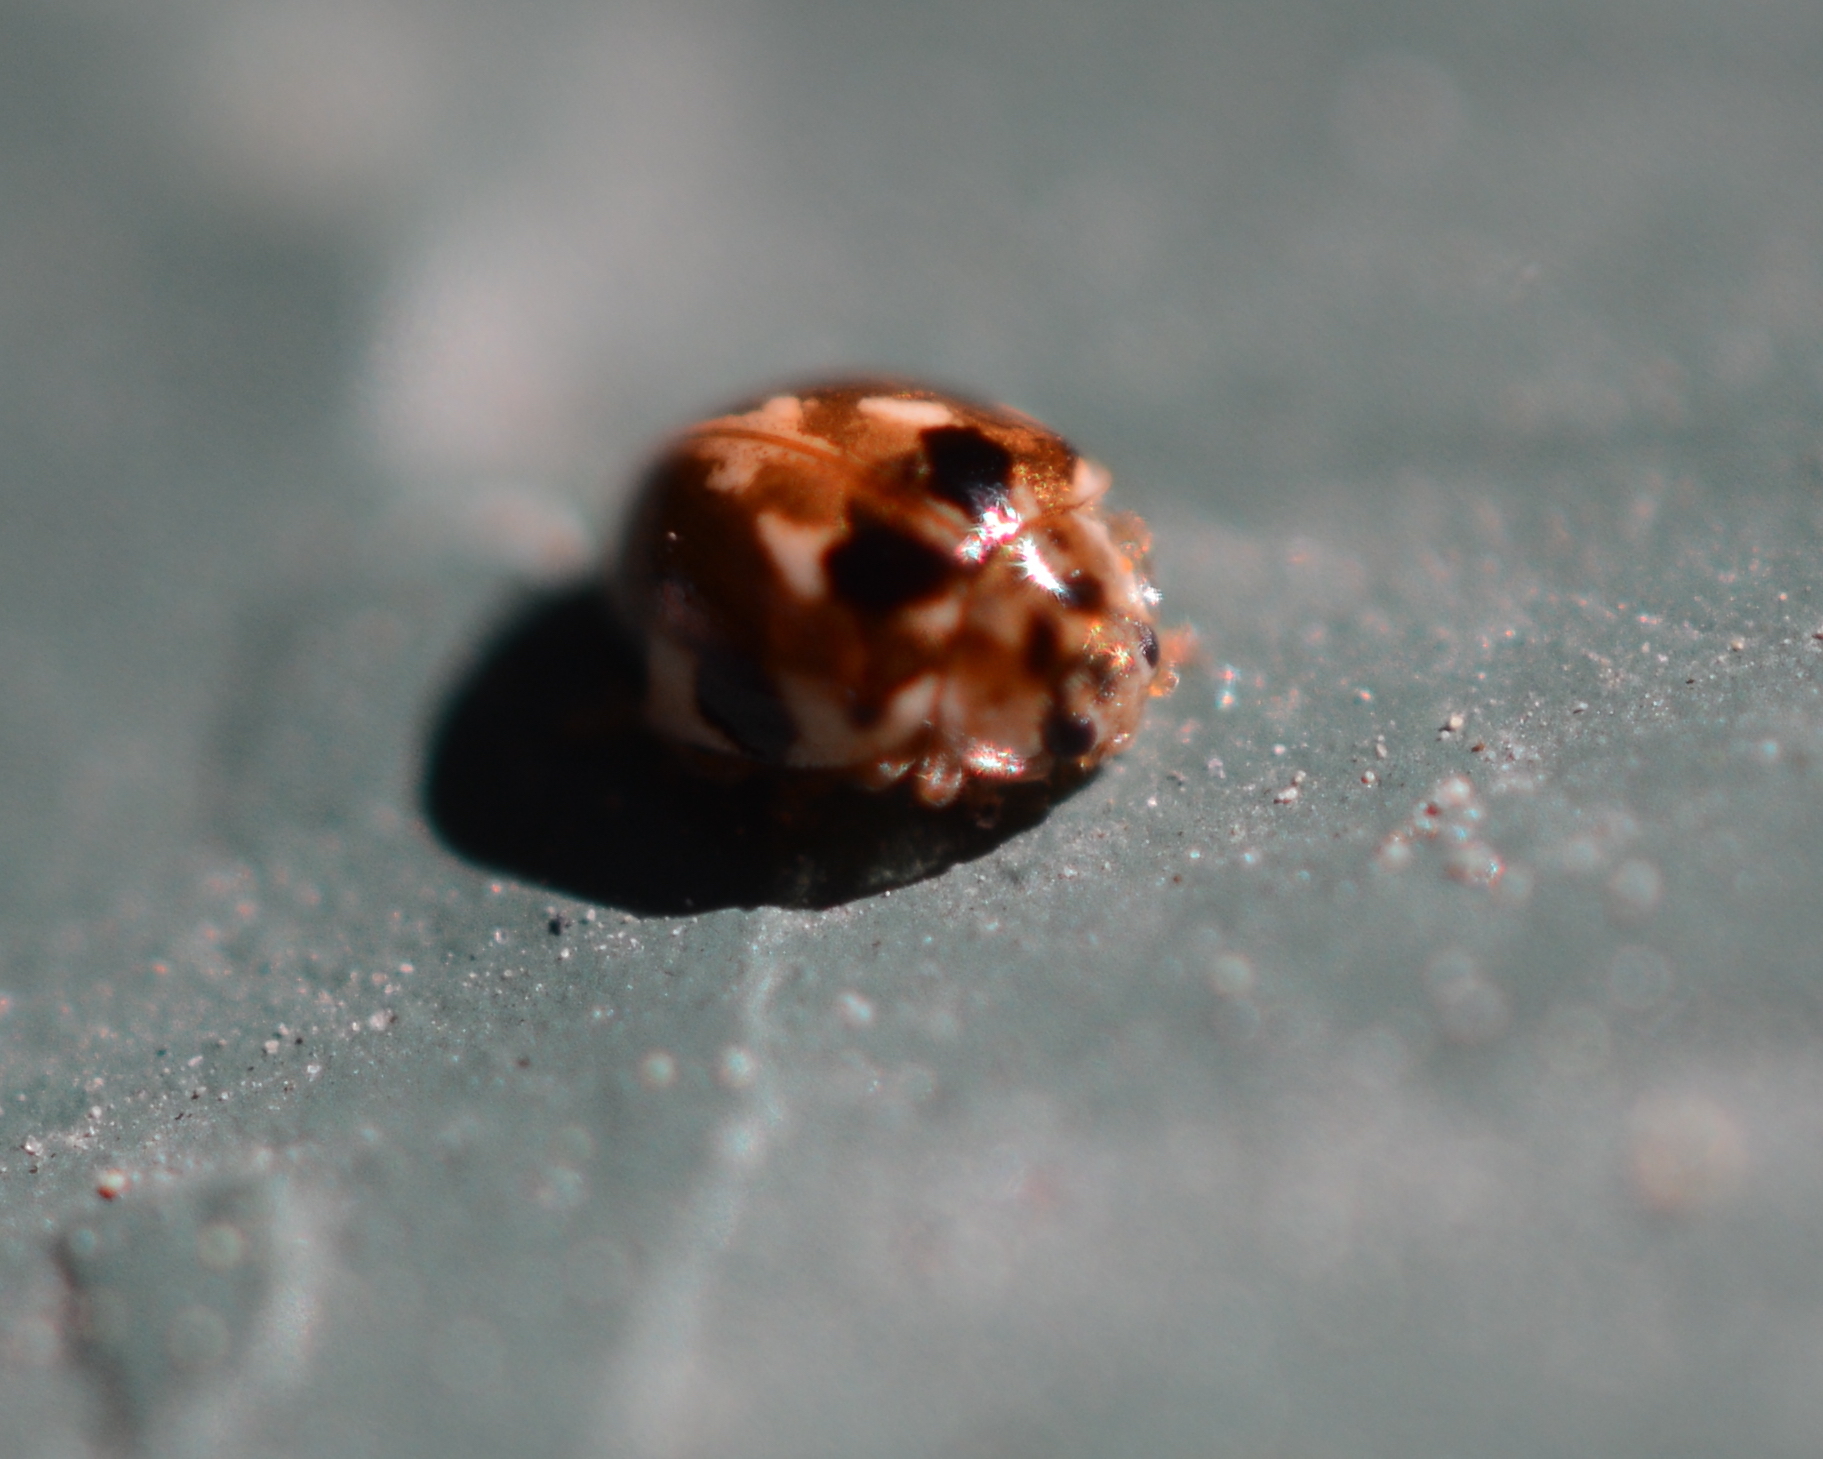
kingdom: Animalia
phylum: Arthropoda
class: Insecta
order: Coleoptera
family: Coccinellidae
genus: Psyllobora
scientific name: Psyllobora vigintimaculata
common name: Ladybird beetle
